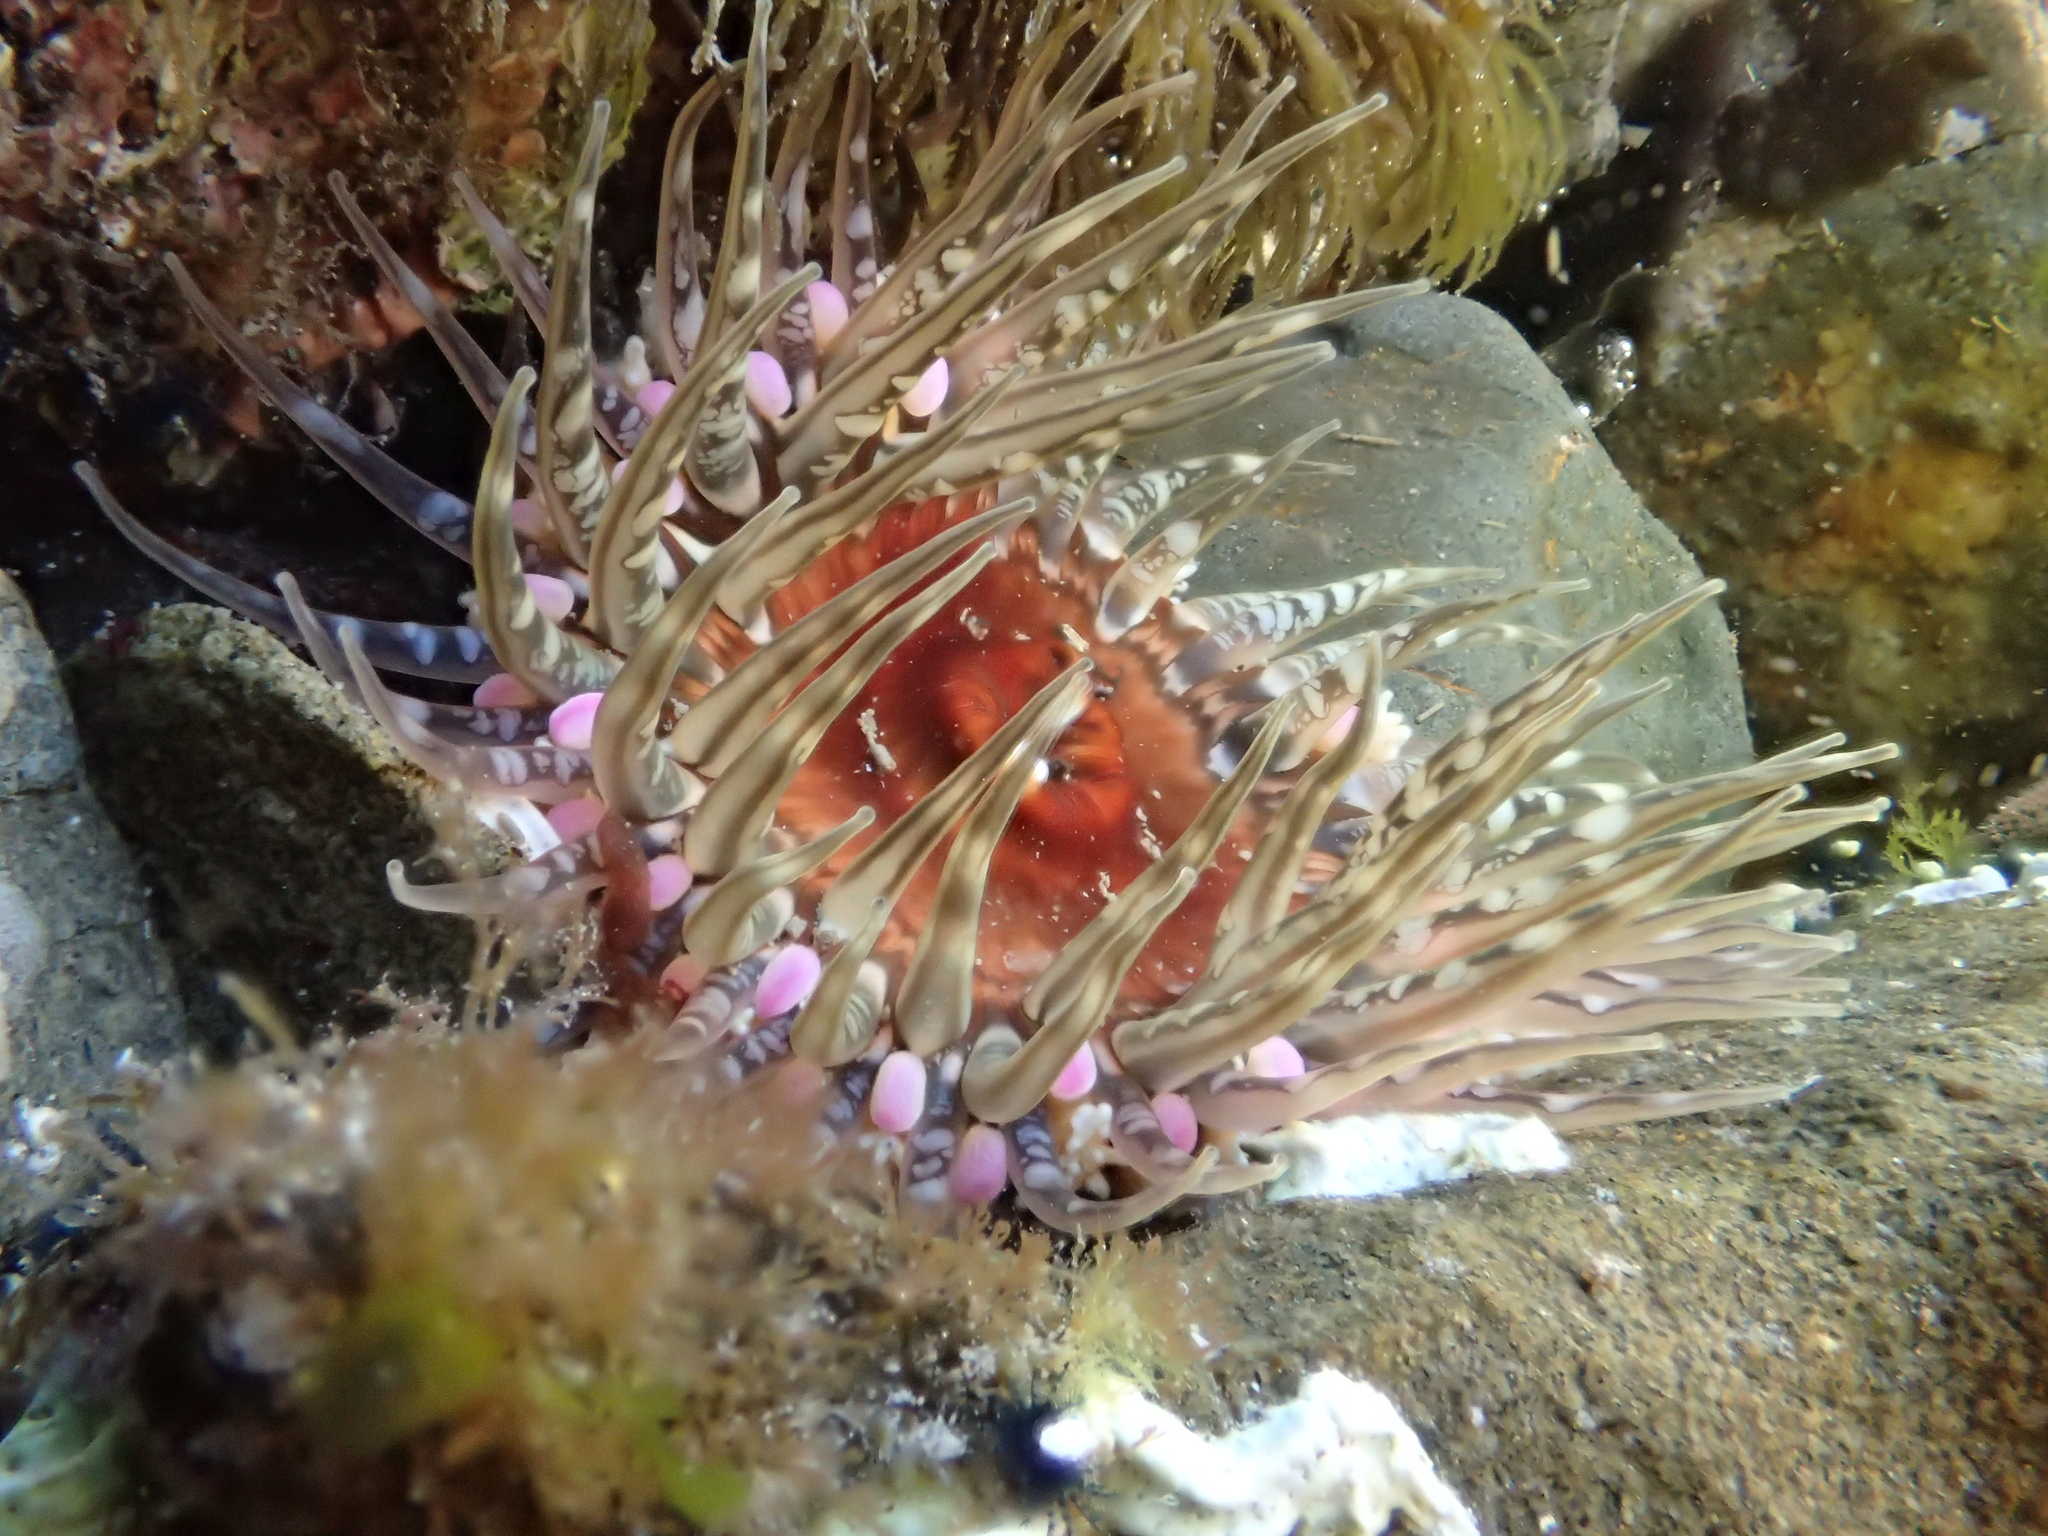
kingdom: Animalia
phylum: Cnidaria
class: Anthozoa
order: Actiniaria
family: Actiniidae
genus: Oulactis
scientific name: Oulactis muscosa
